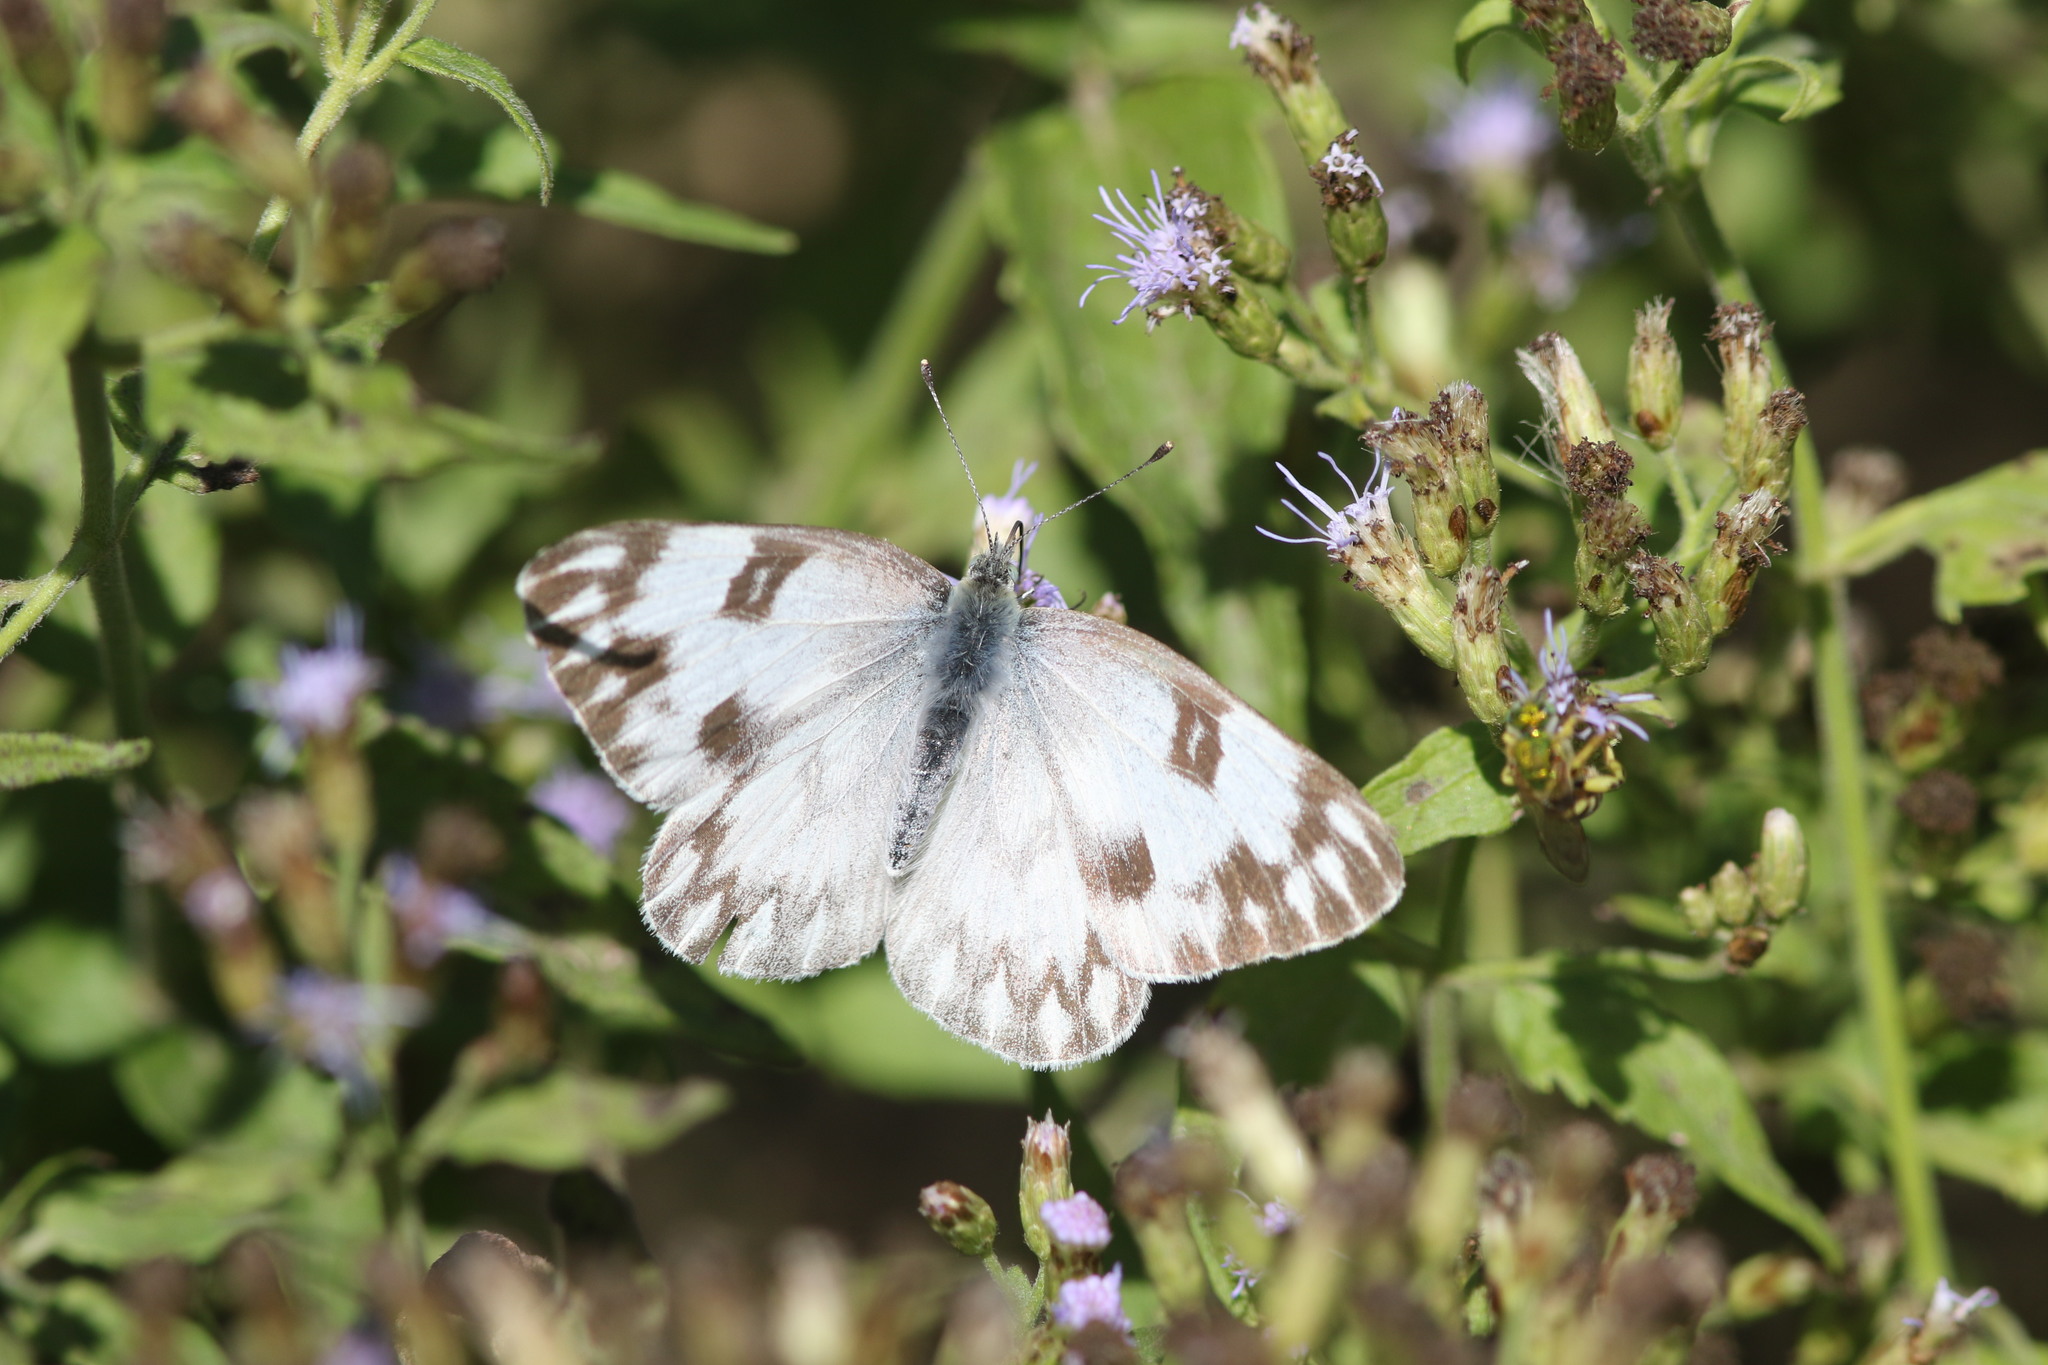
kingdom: Animalia
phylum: Arthropoda
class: Insecta
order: Lepidoptera
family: Pieridae
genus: Pontia
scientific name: Pontia protodice
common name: Checkered white
